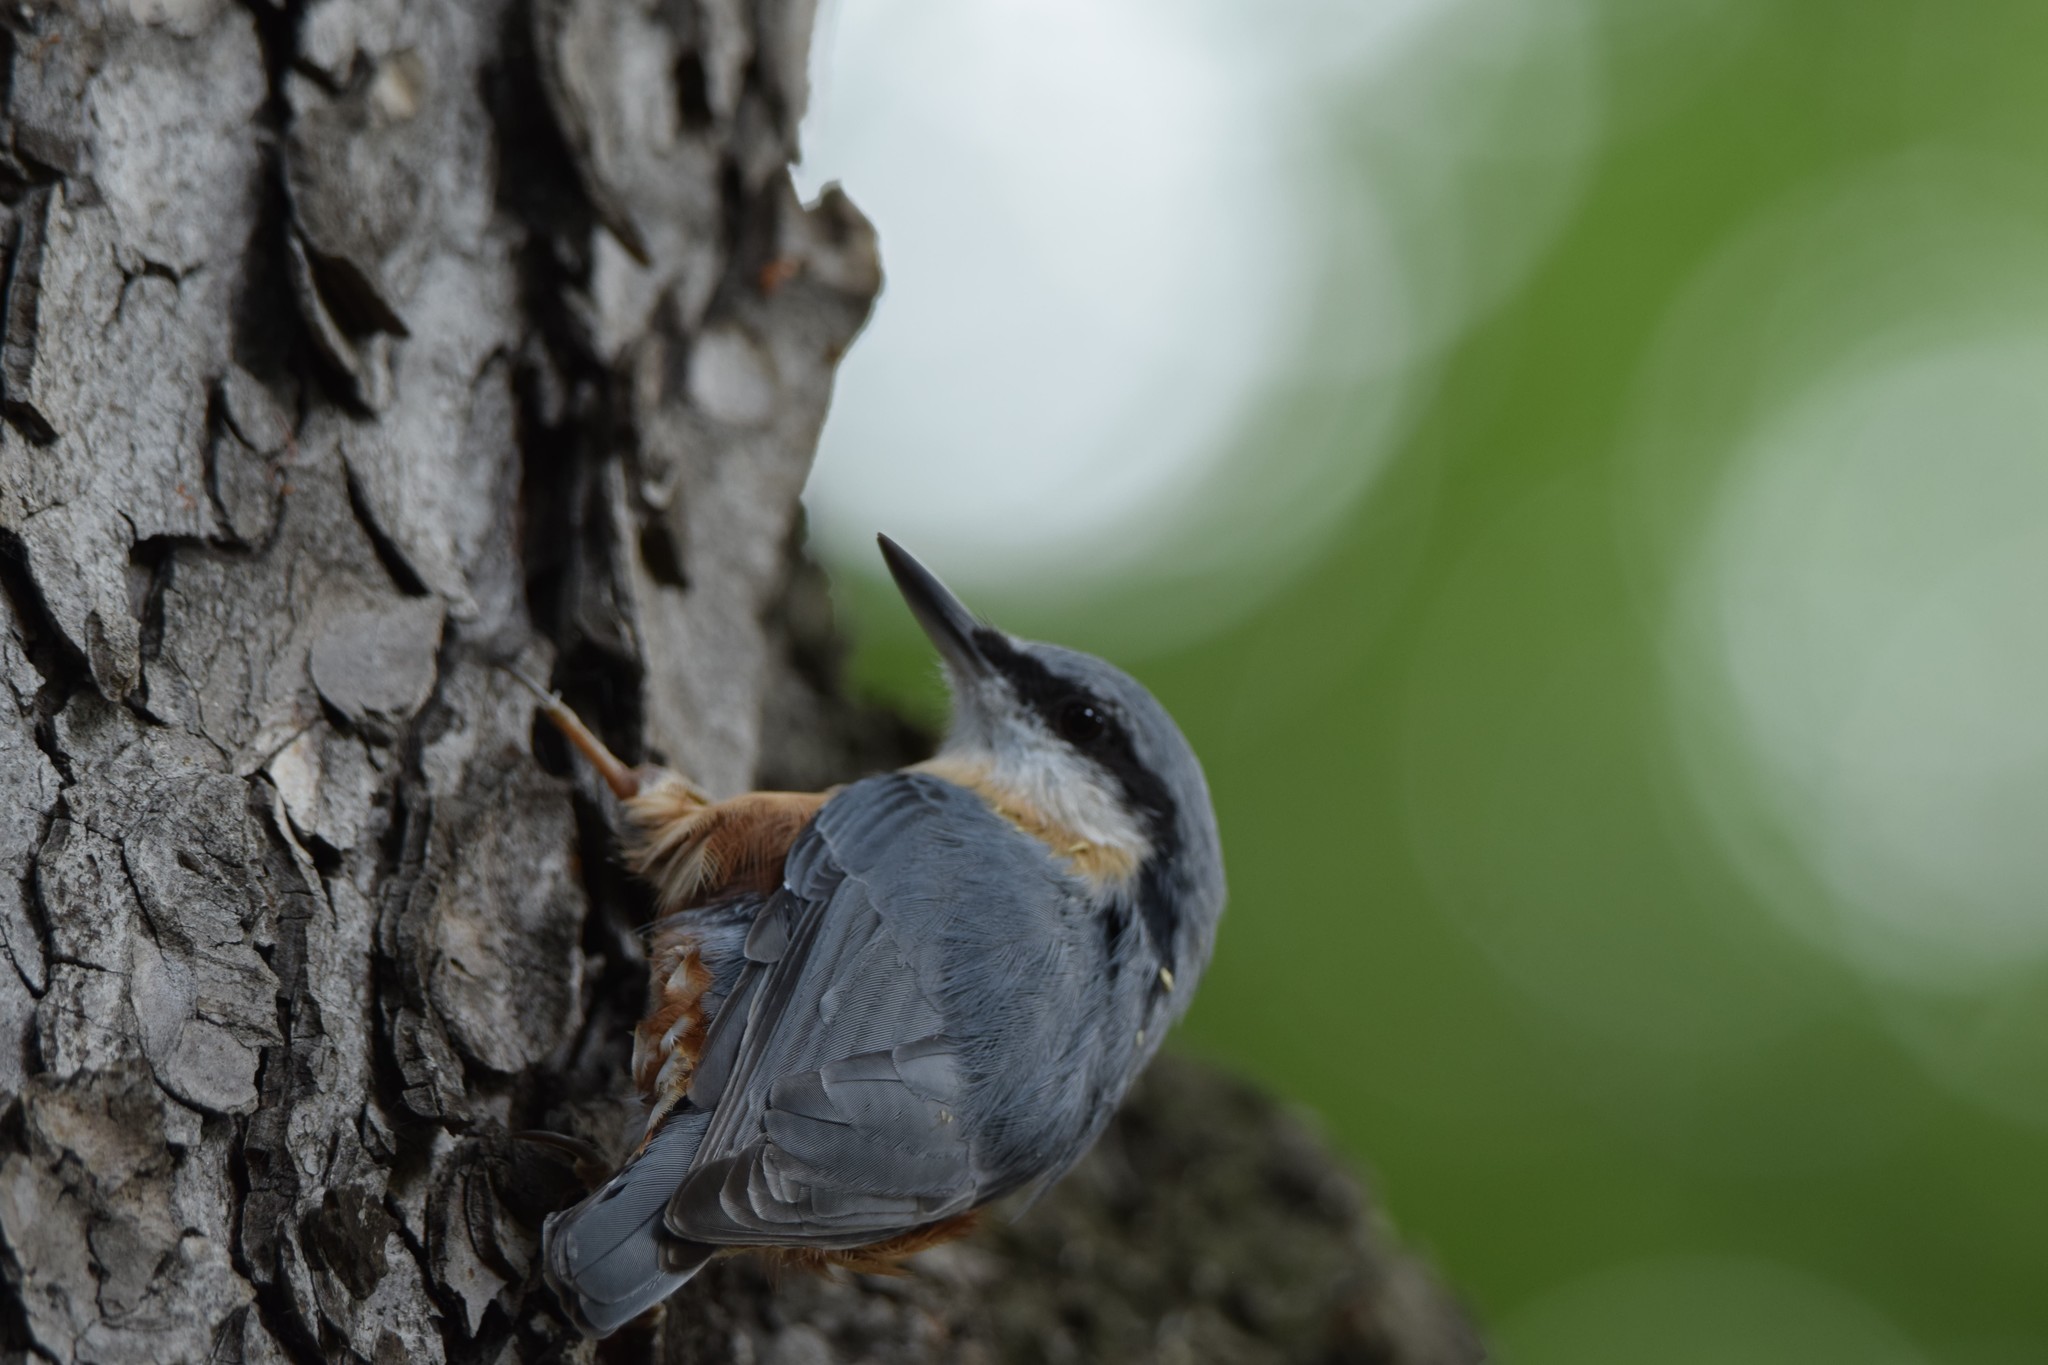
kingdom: Animalia
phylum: Chordata
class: Aves
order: Passeriformes
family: Sittidae
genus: Sitta
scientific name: Sitta europaea
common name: Eurasian nuthatch
